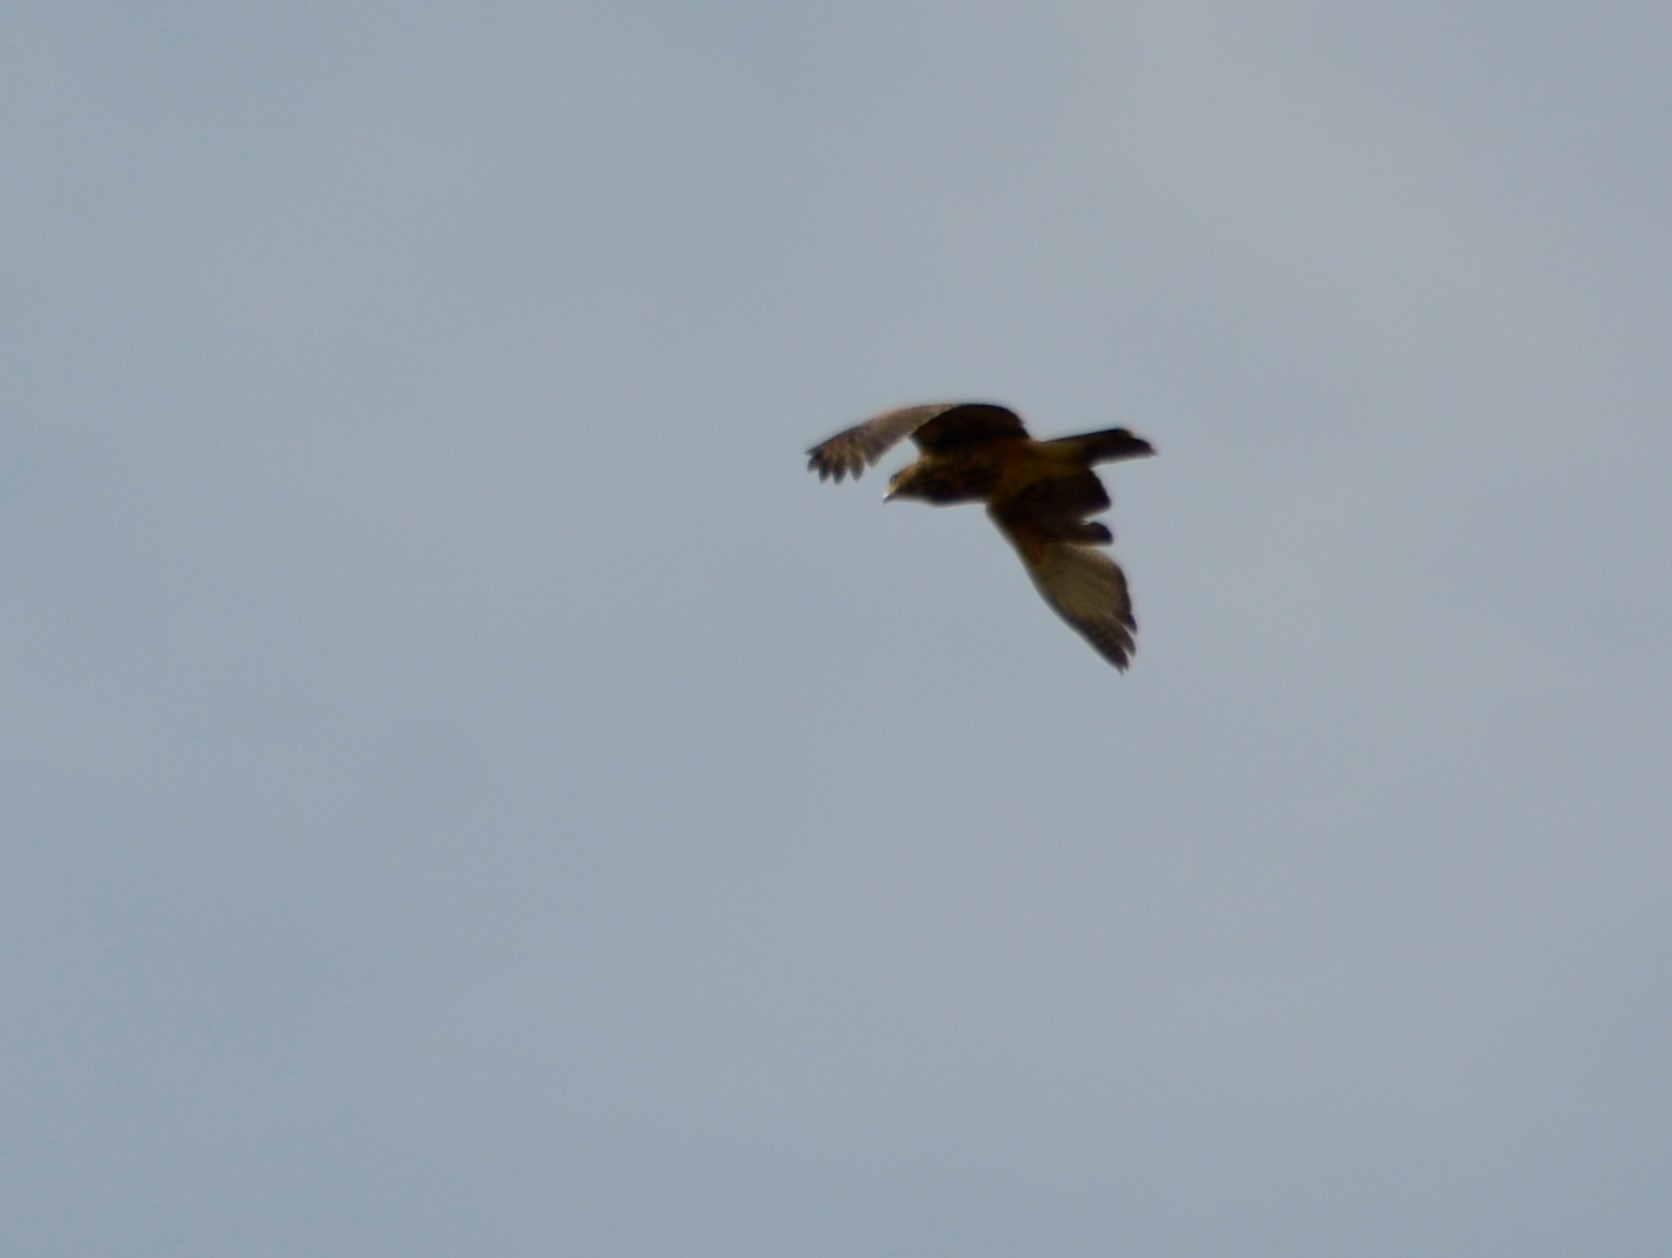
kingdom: Animalia
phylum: Chordata
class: Aves
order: Falconiformes
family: Falconidae
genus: Daptrius
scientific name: Daptrius
